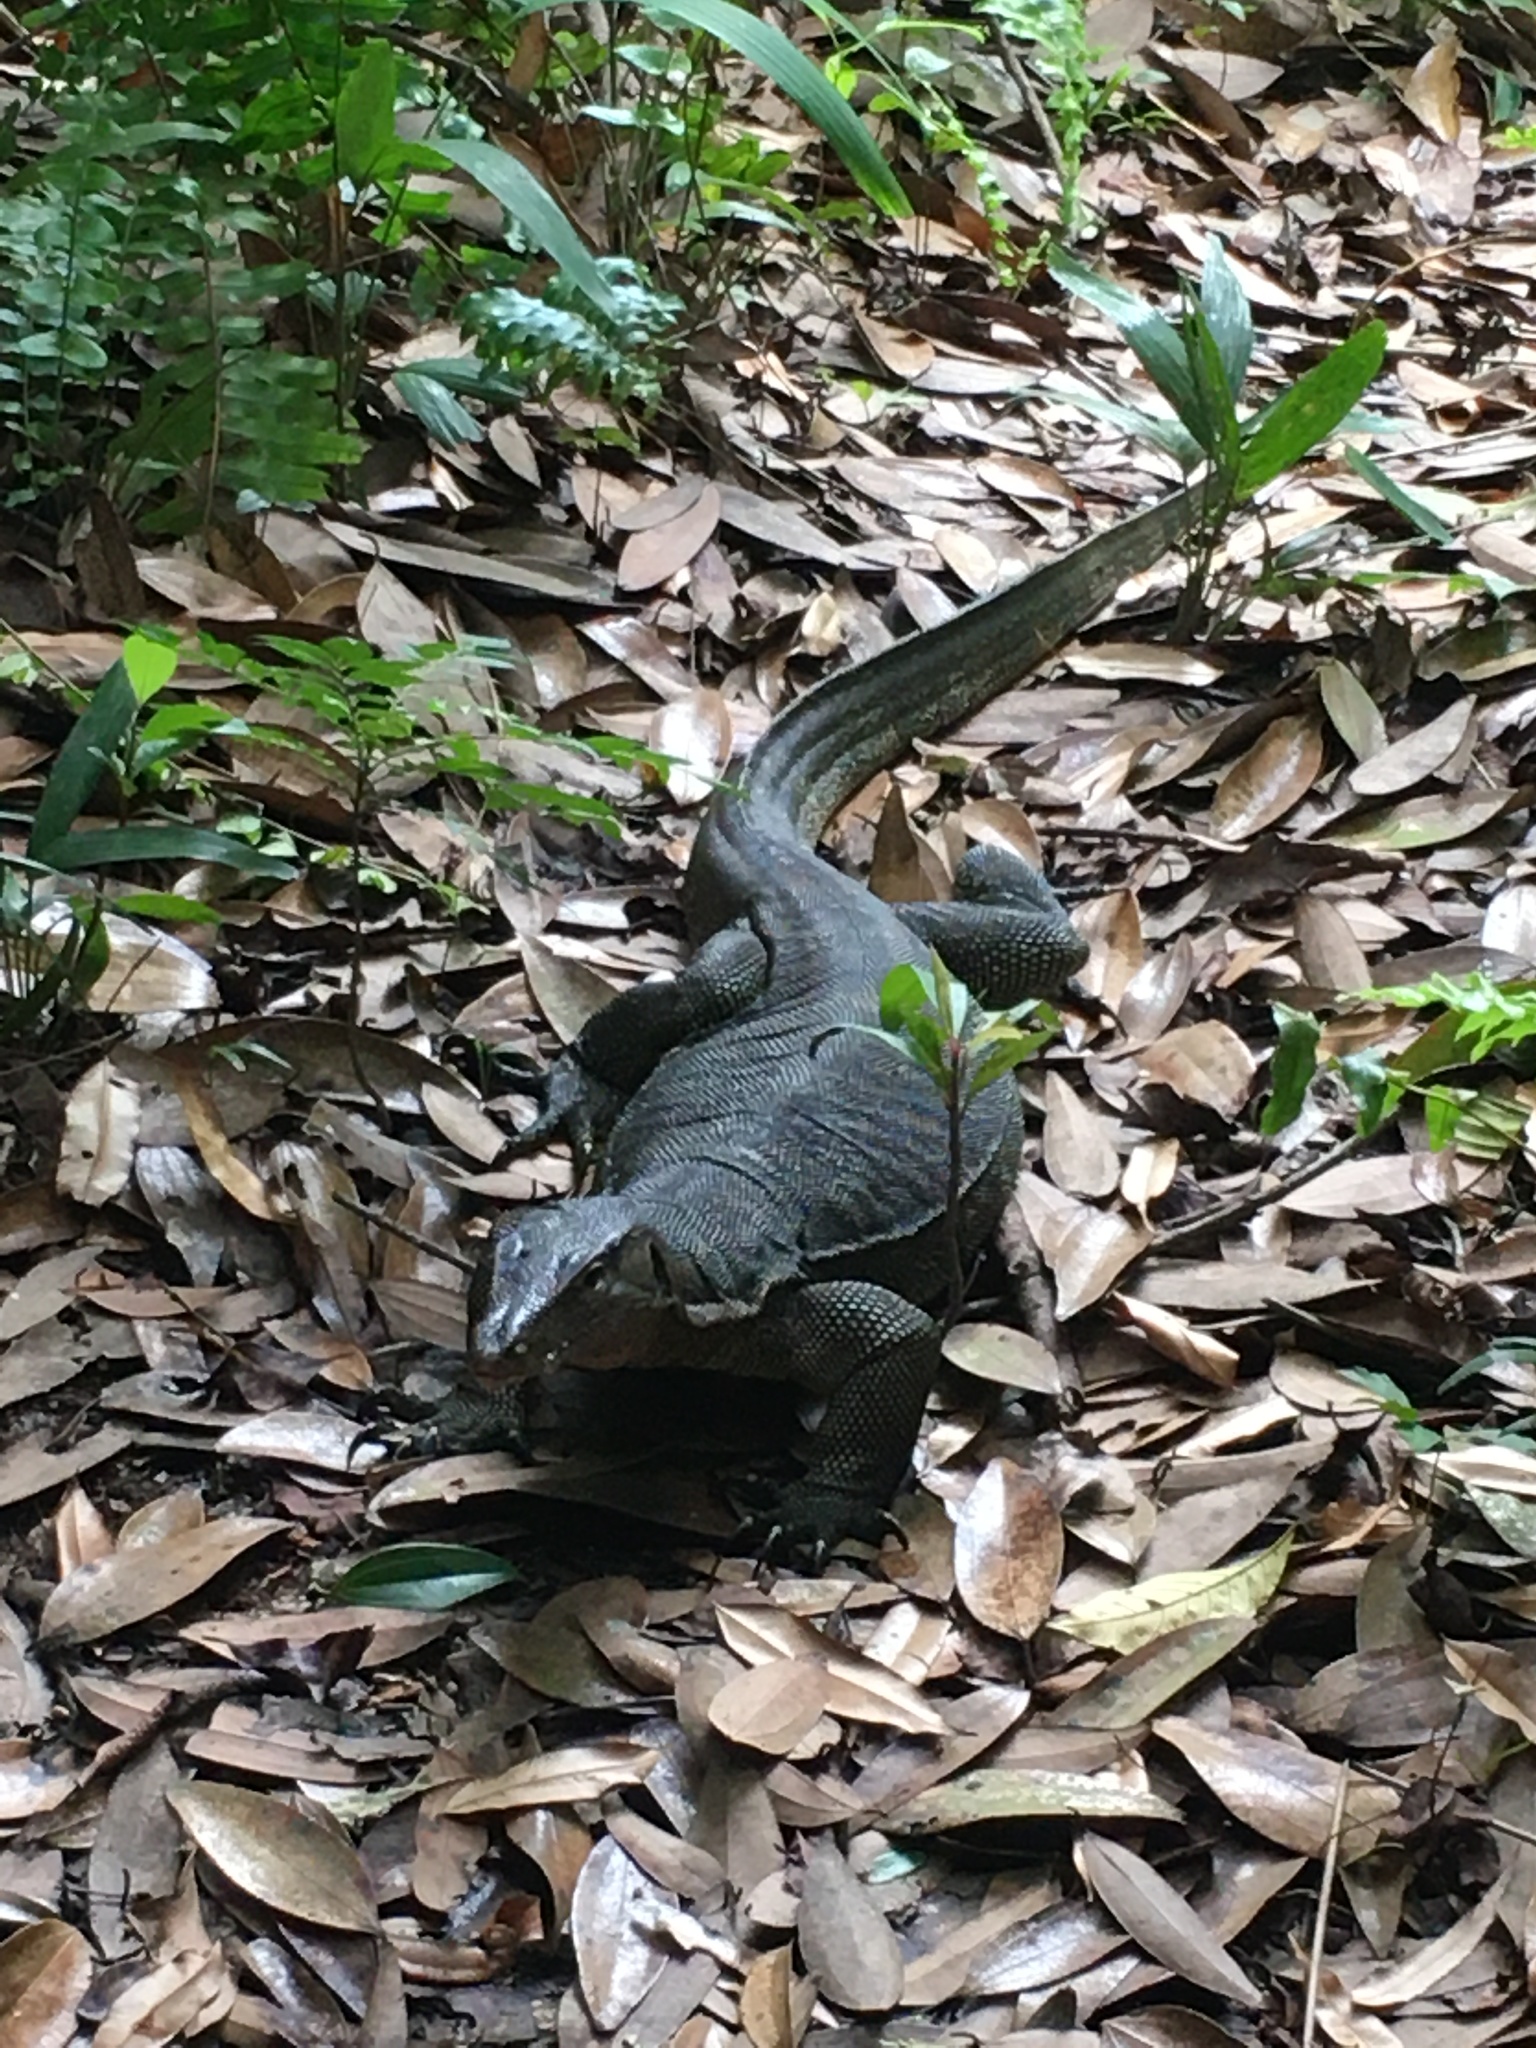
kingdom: Animalia
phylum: Chordata
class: Squamata
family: Varanidae
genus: Varanus
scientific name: Varanus salvator
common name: Common water monitor
